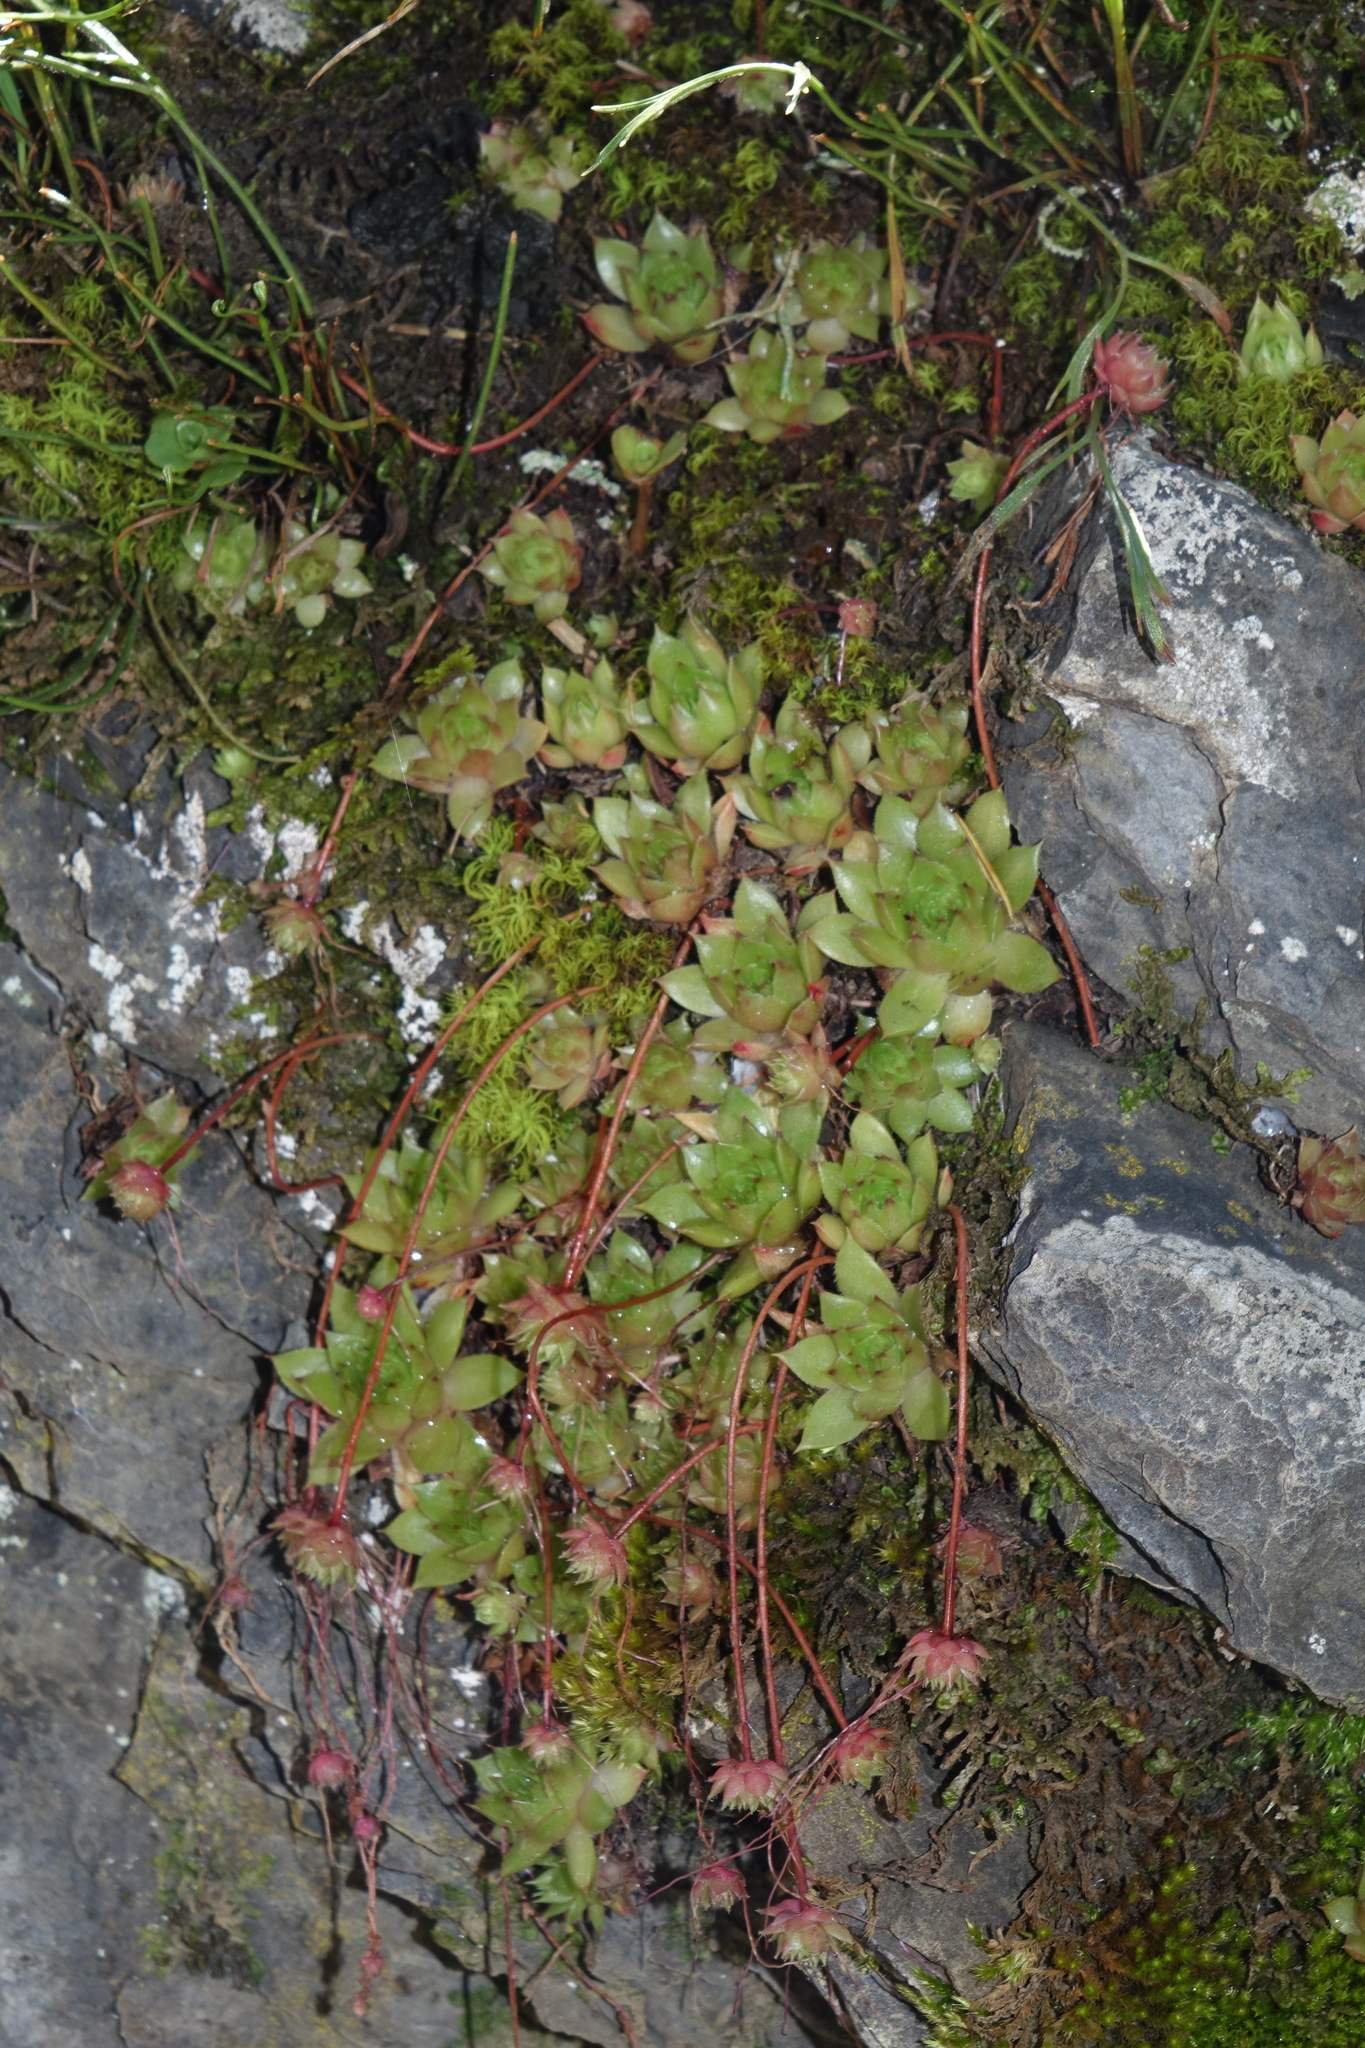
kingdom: Plantae
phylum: Tracheophyta
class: Magnoliopsida
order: Saxifragales
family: Crassulaceae
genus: Sempervivum
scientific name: Sempervivum caucasicum
